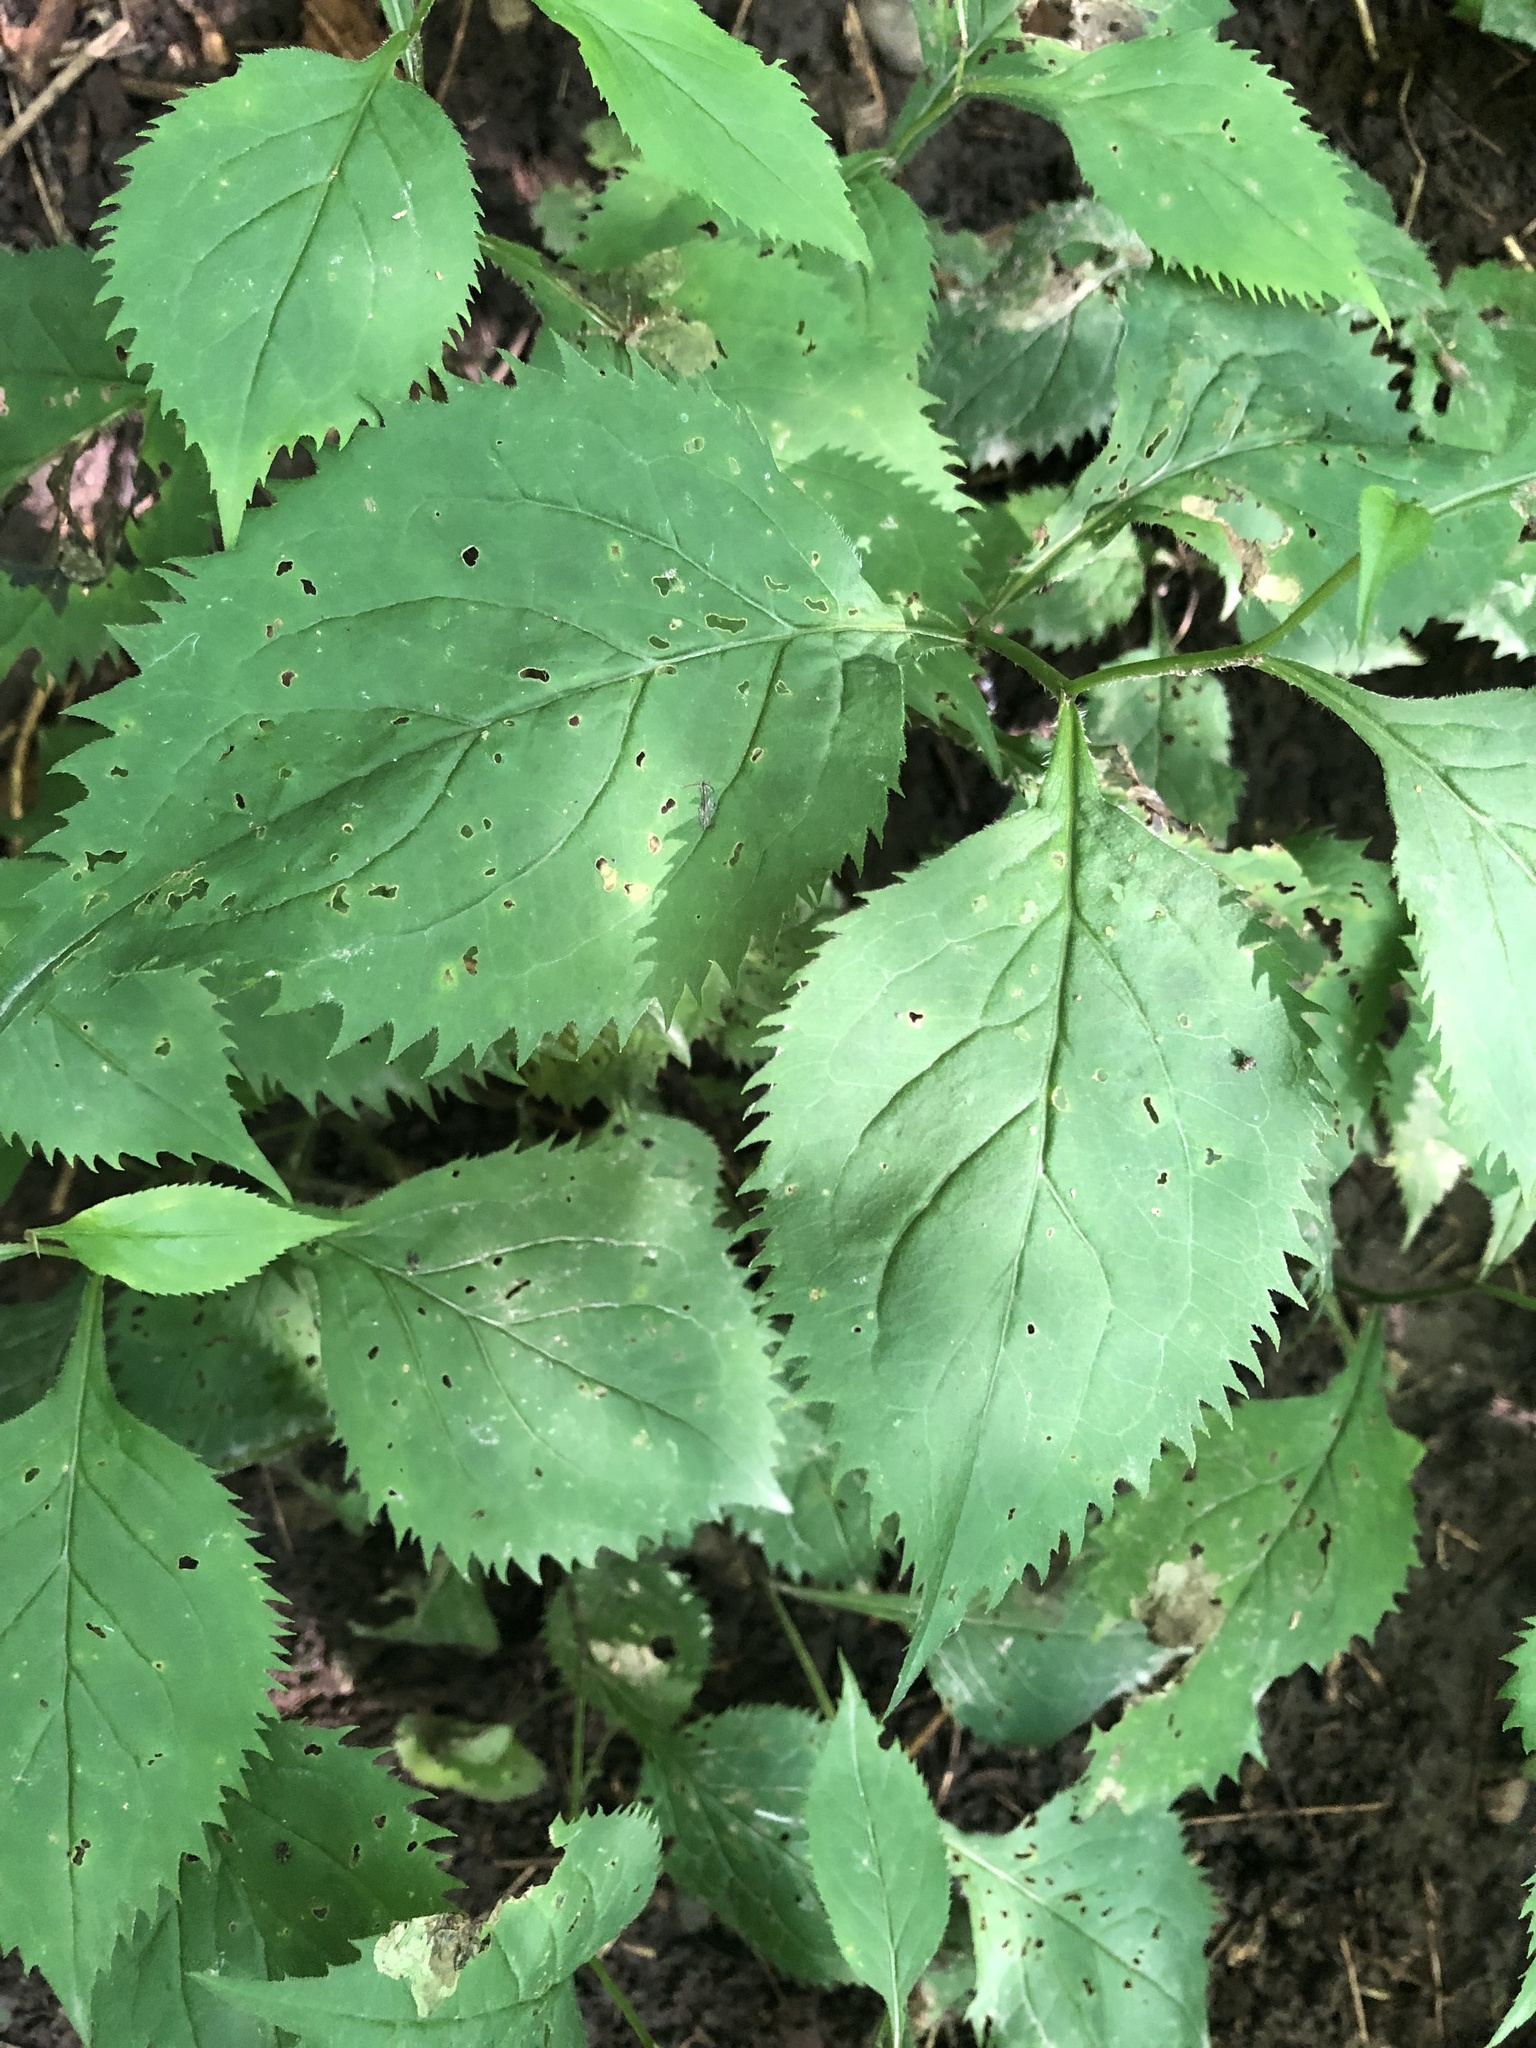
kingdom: Plantae
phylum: Tracheophyta
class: Magnoliopsida
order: Asterales
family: Asteraceae
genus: Solidago
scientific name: Solidago flexicaulis
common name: Zig-zag goldenrod
